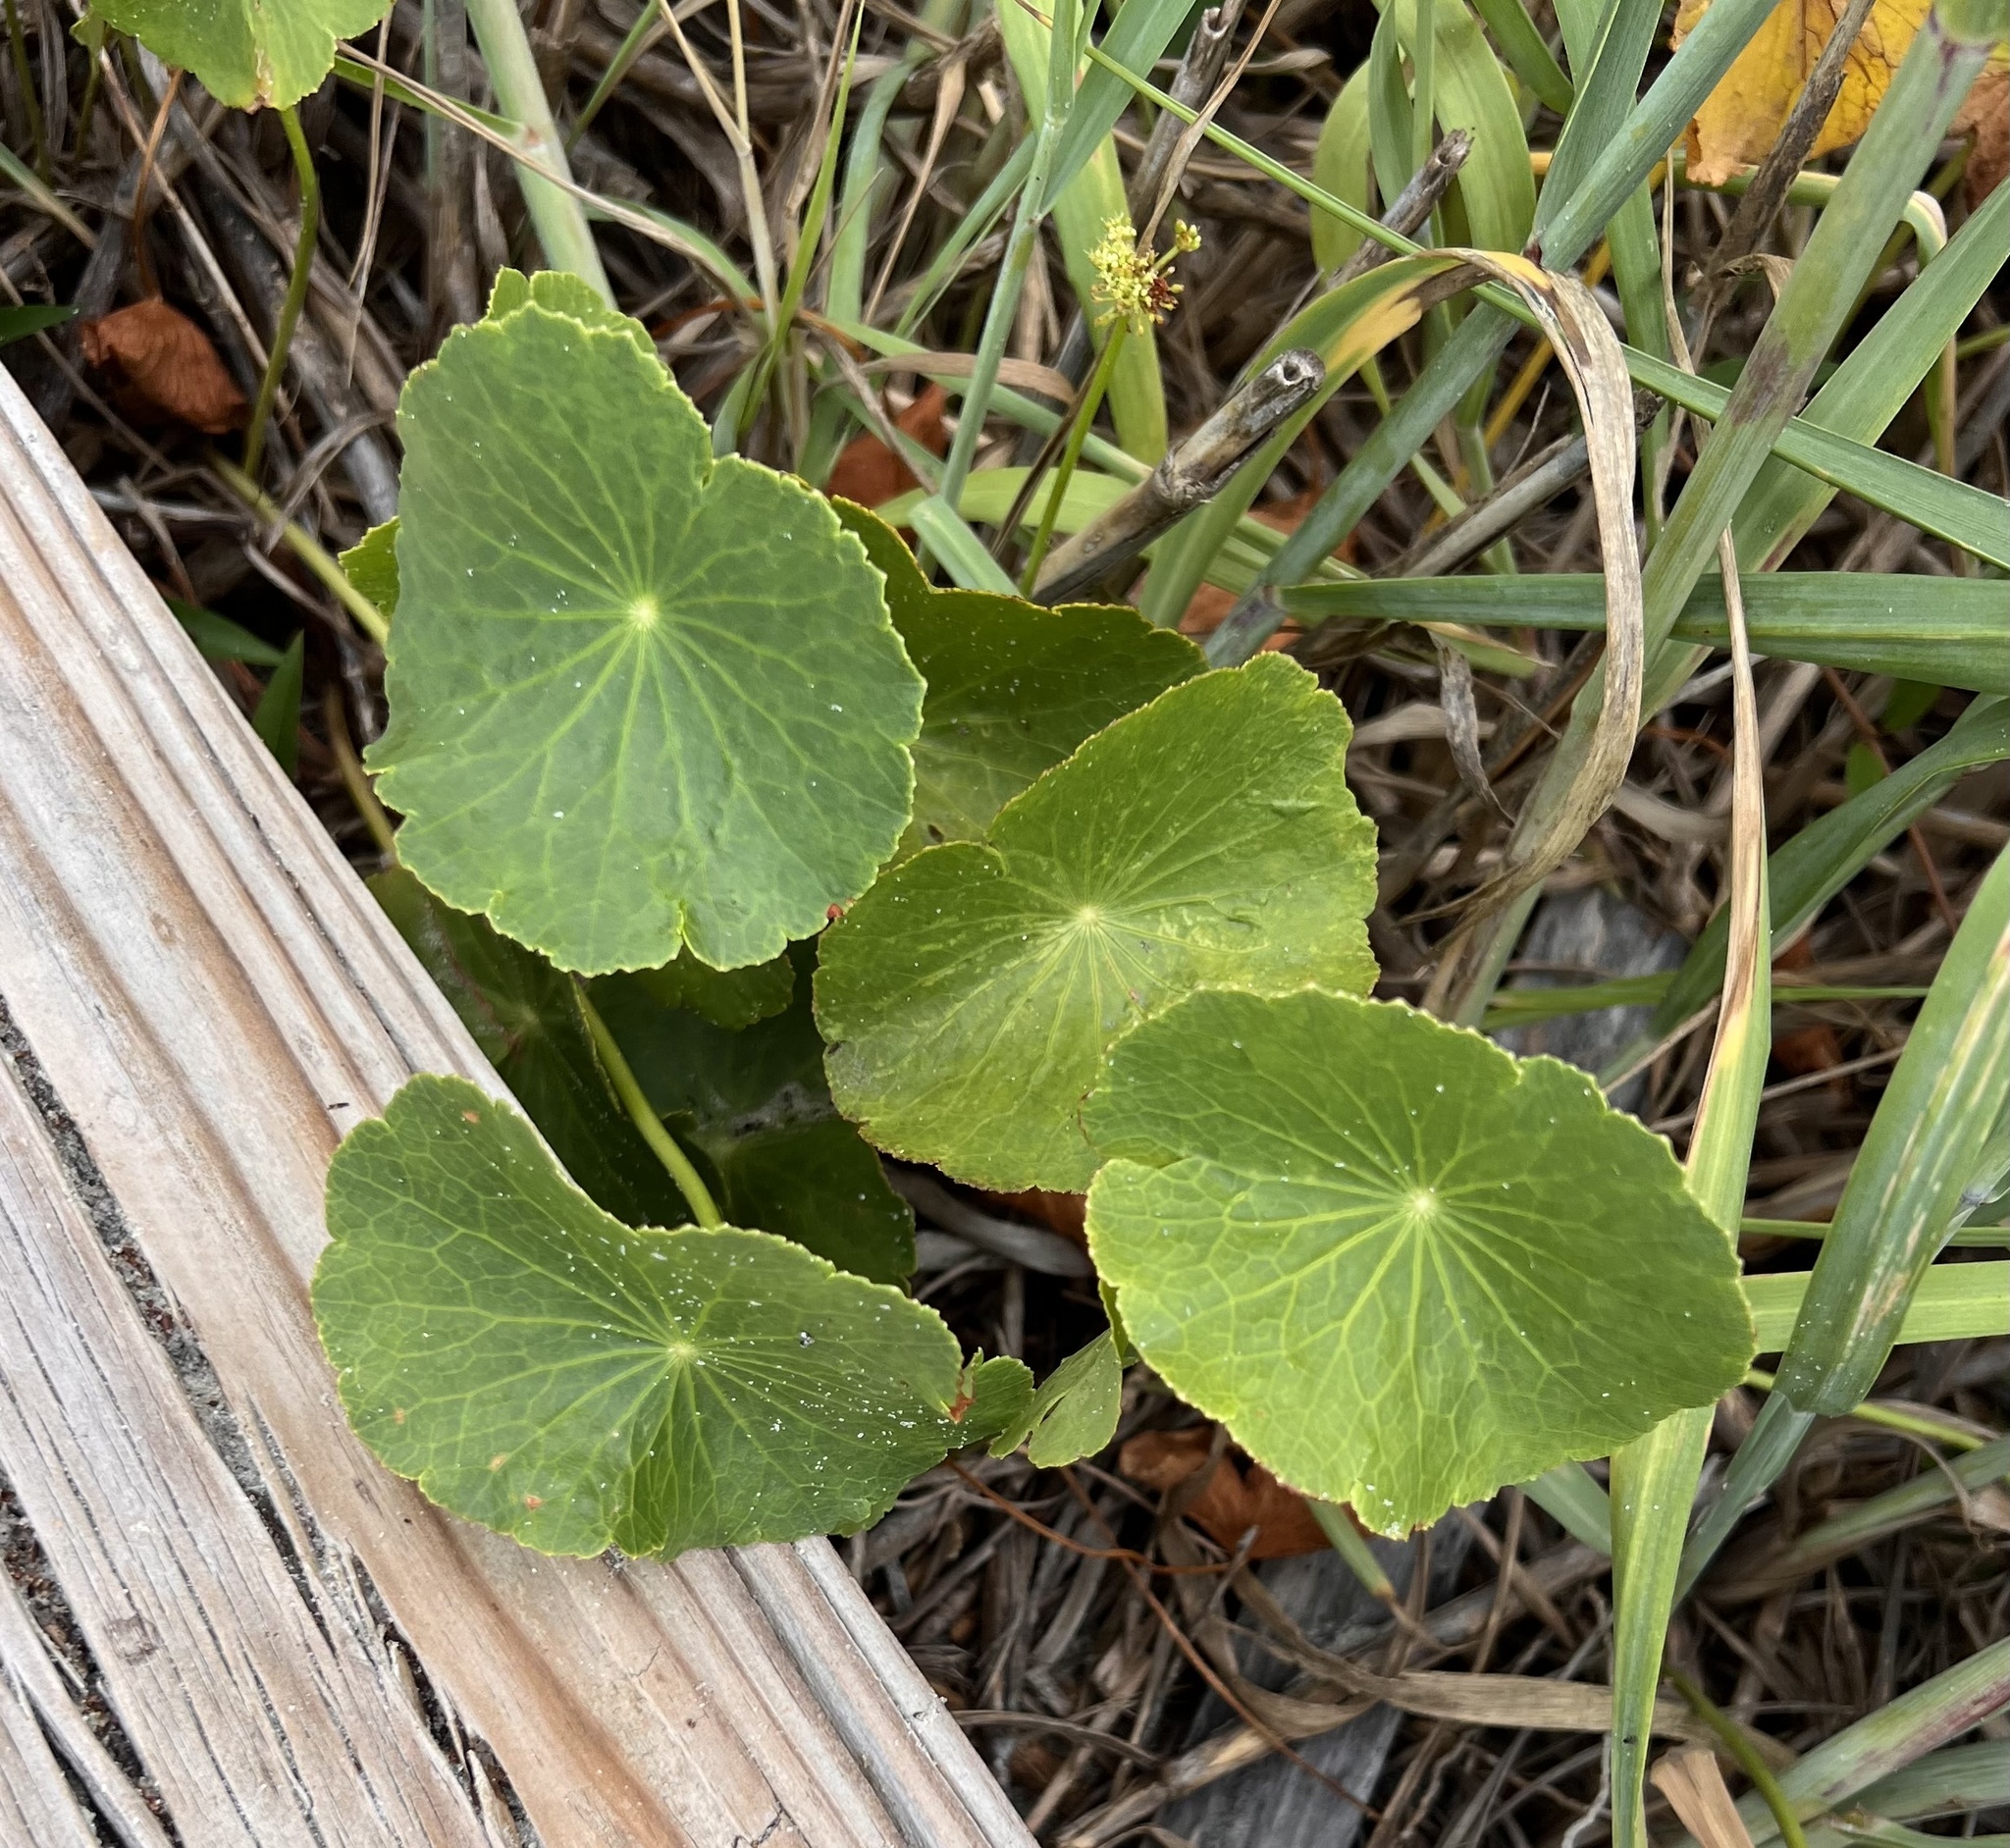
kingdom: Plantae
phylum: Tracheophyta
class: Magnoliopsida
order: Apiales
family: Araliaceae
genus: Hydrocotyle
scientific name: Hydrocotyle bonariensis
